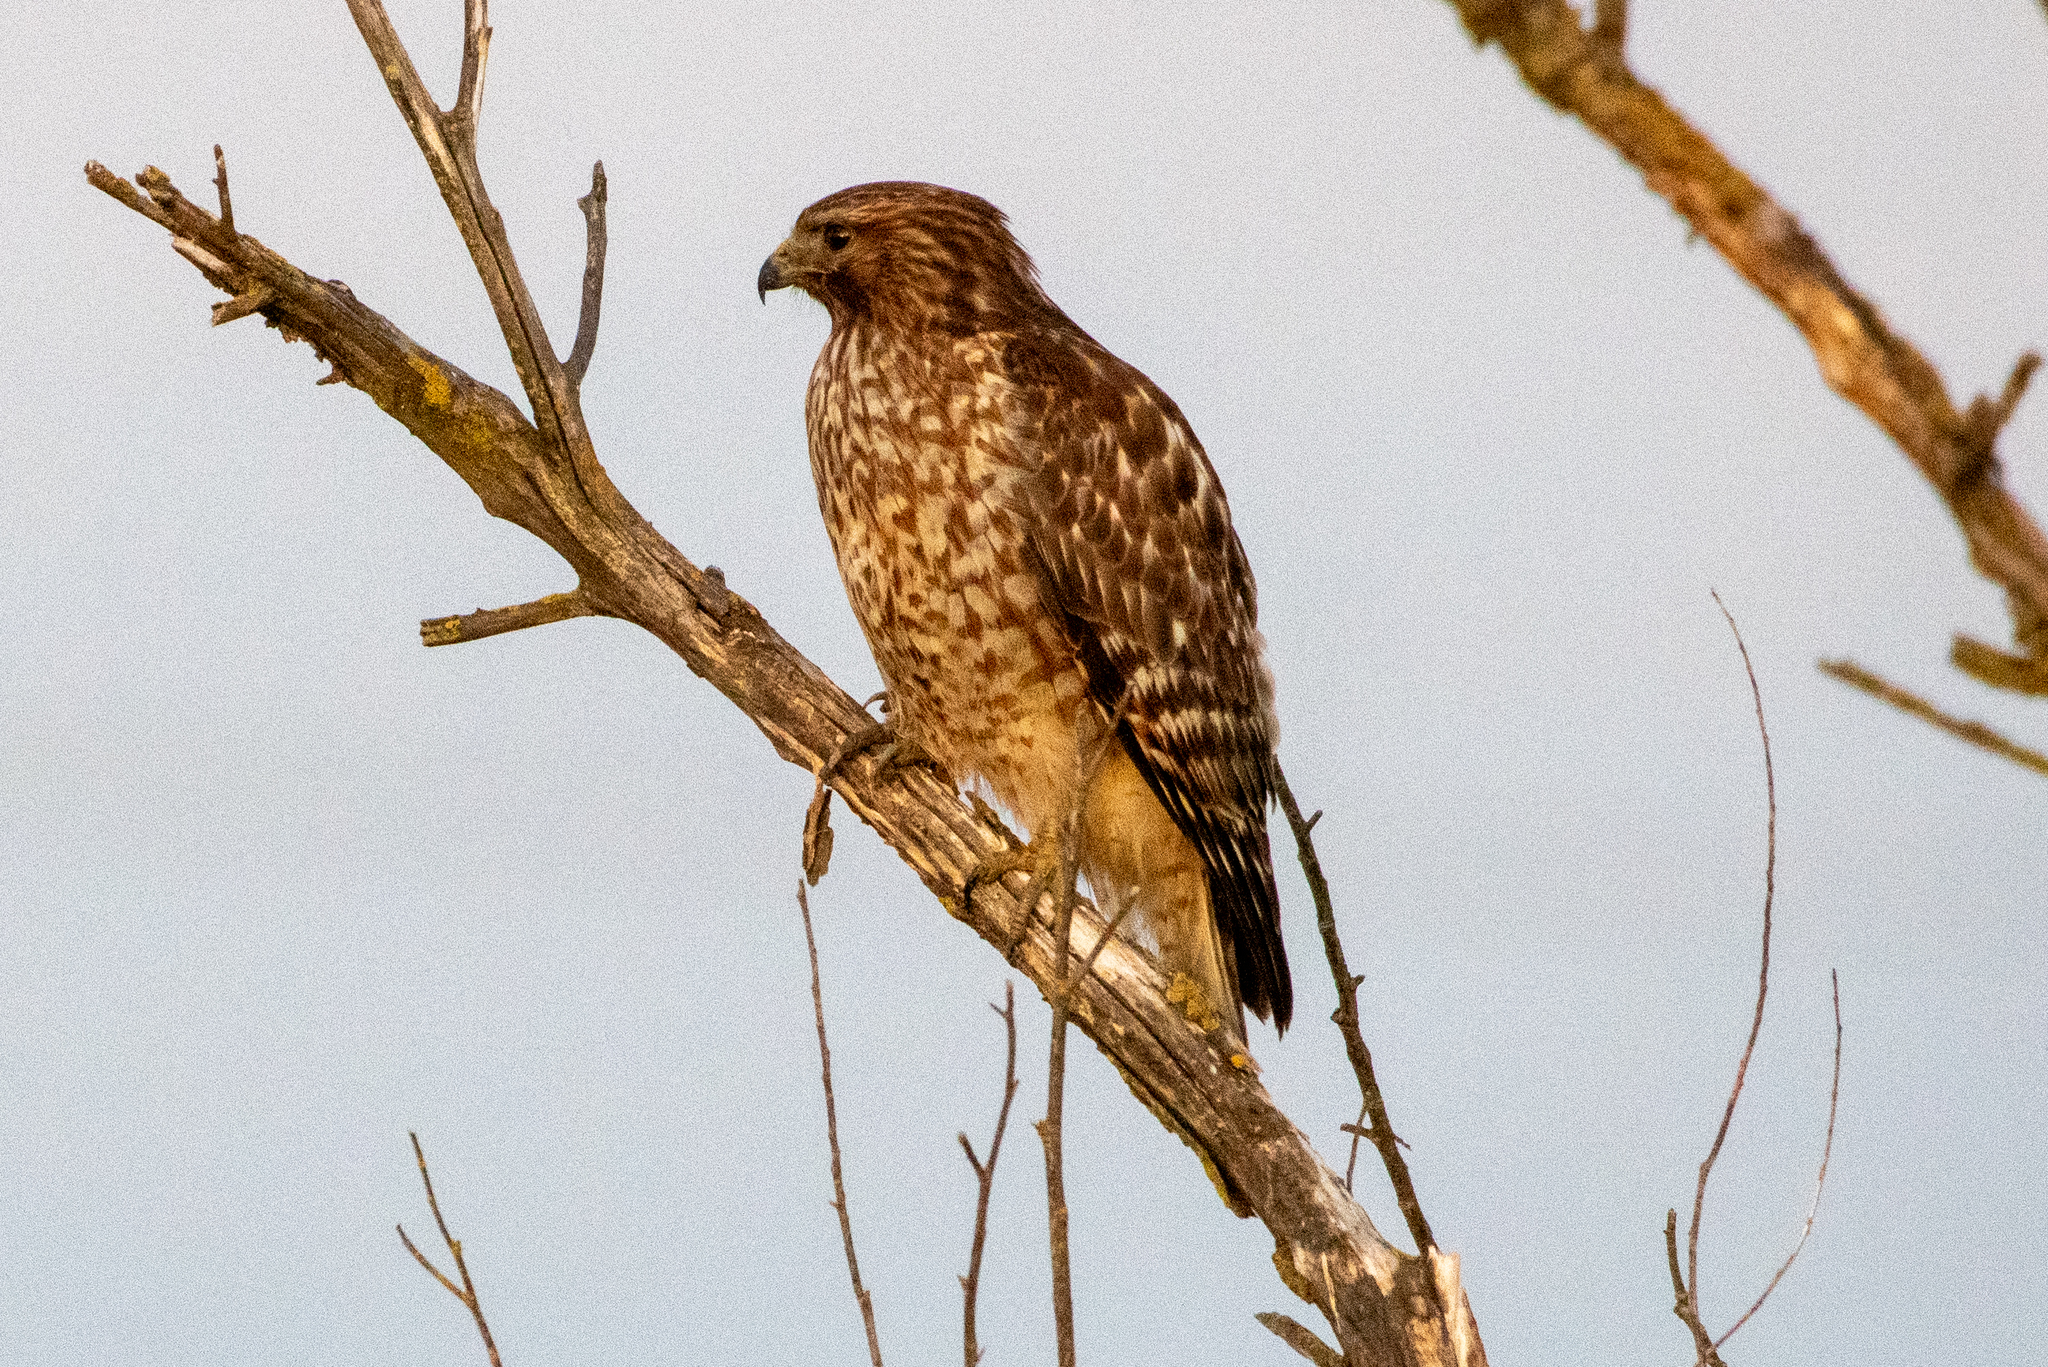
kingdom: Animalia
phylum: Chordata
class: Aves
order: Accipitriformes
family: Accipitridae
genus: Buteo
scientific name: Buteo lineatus
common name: Red-shouldered hawk
